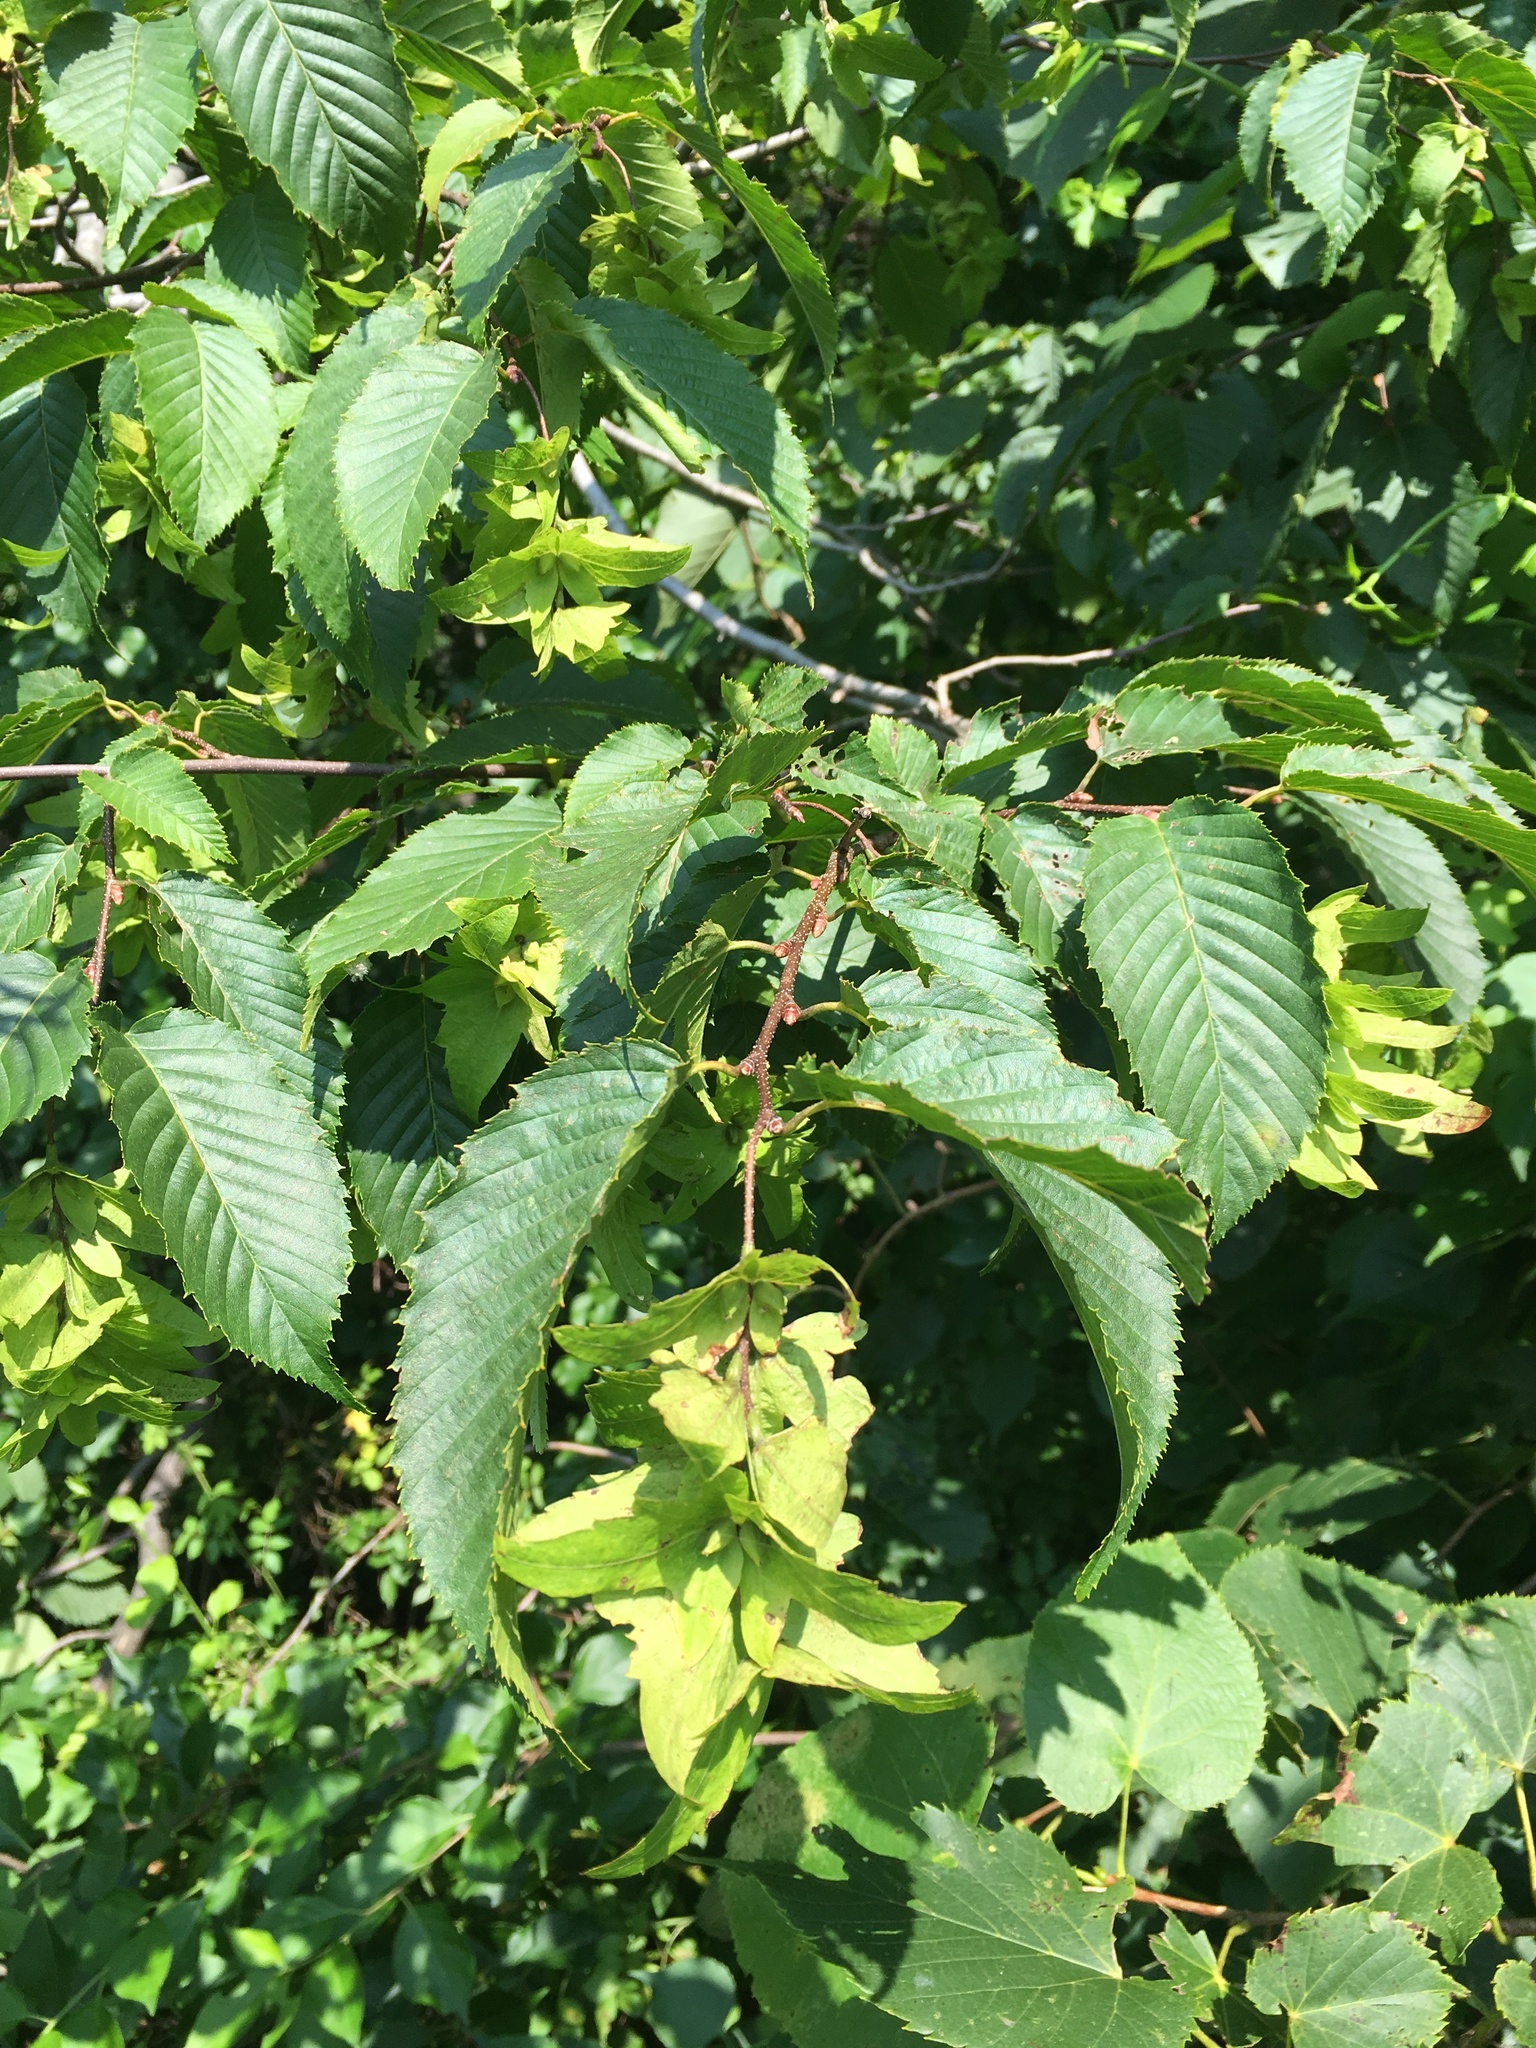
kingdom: Plantae
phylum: Tracheophyta
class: Magnoliopsida
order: Fagales
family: Betulaceae
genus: Carpinus
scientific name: Carpinus caroliniana
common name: American hornbeam
